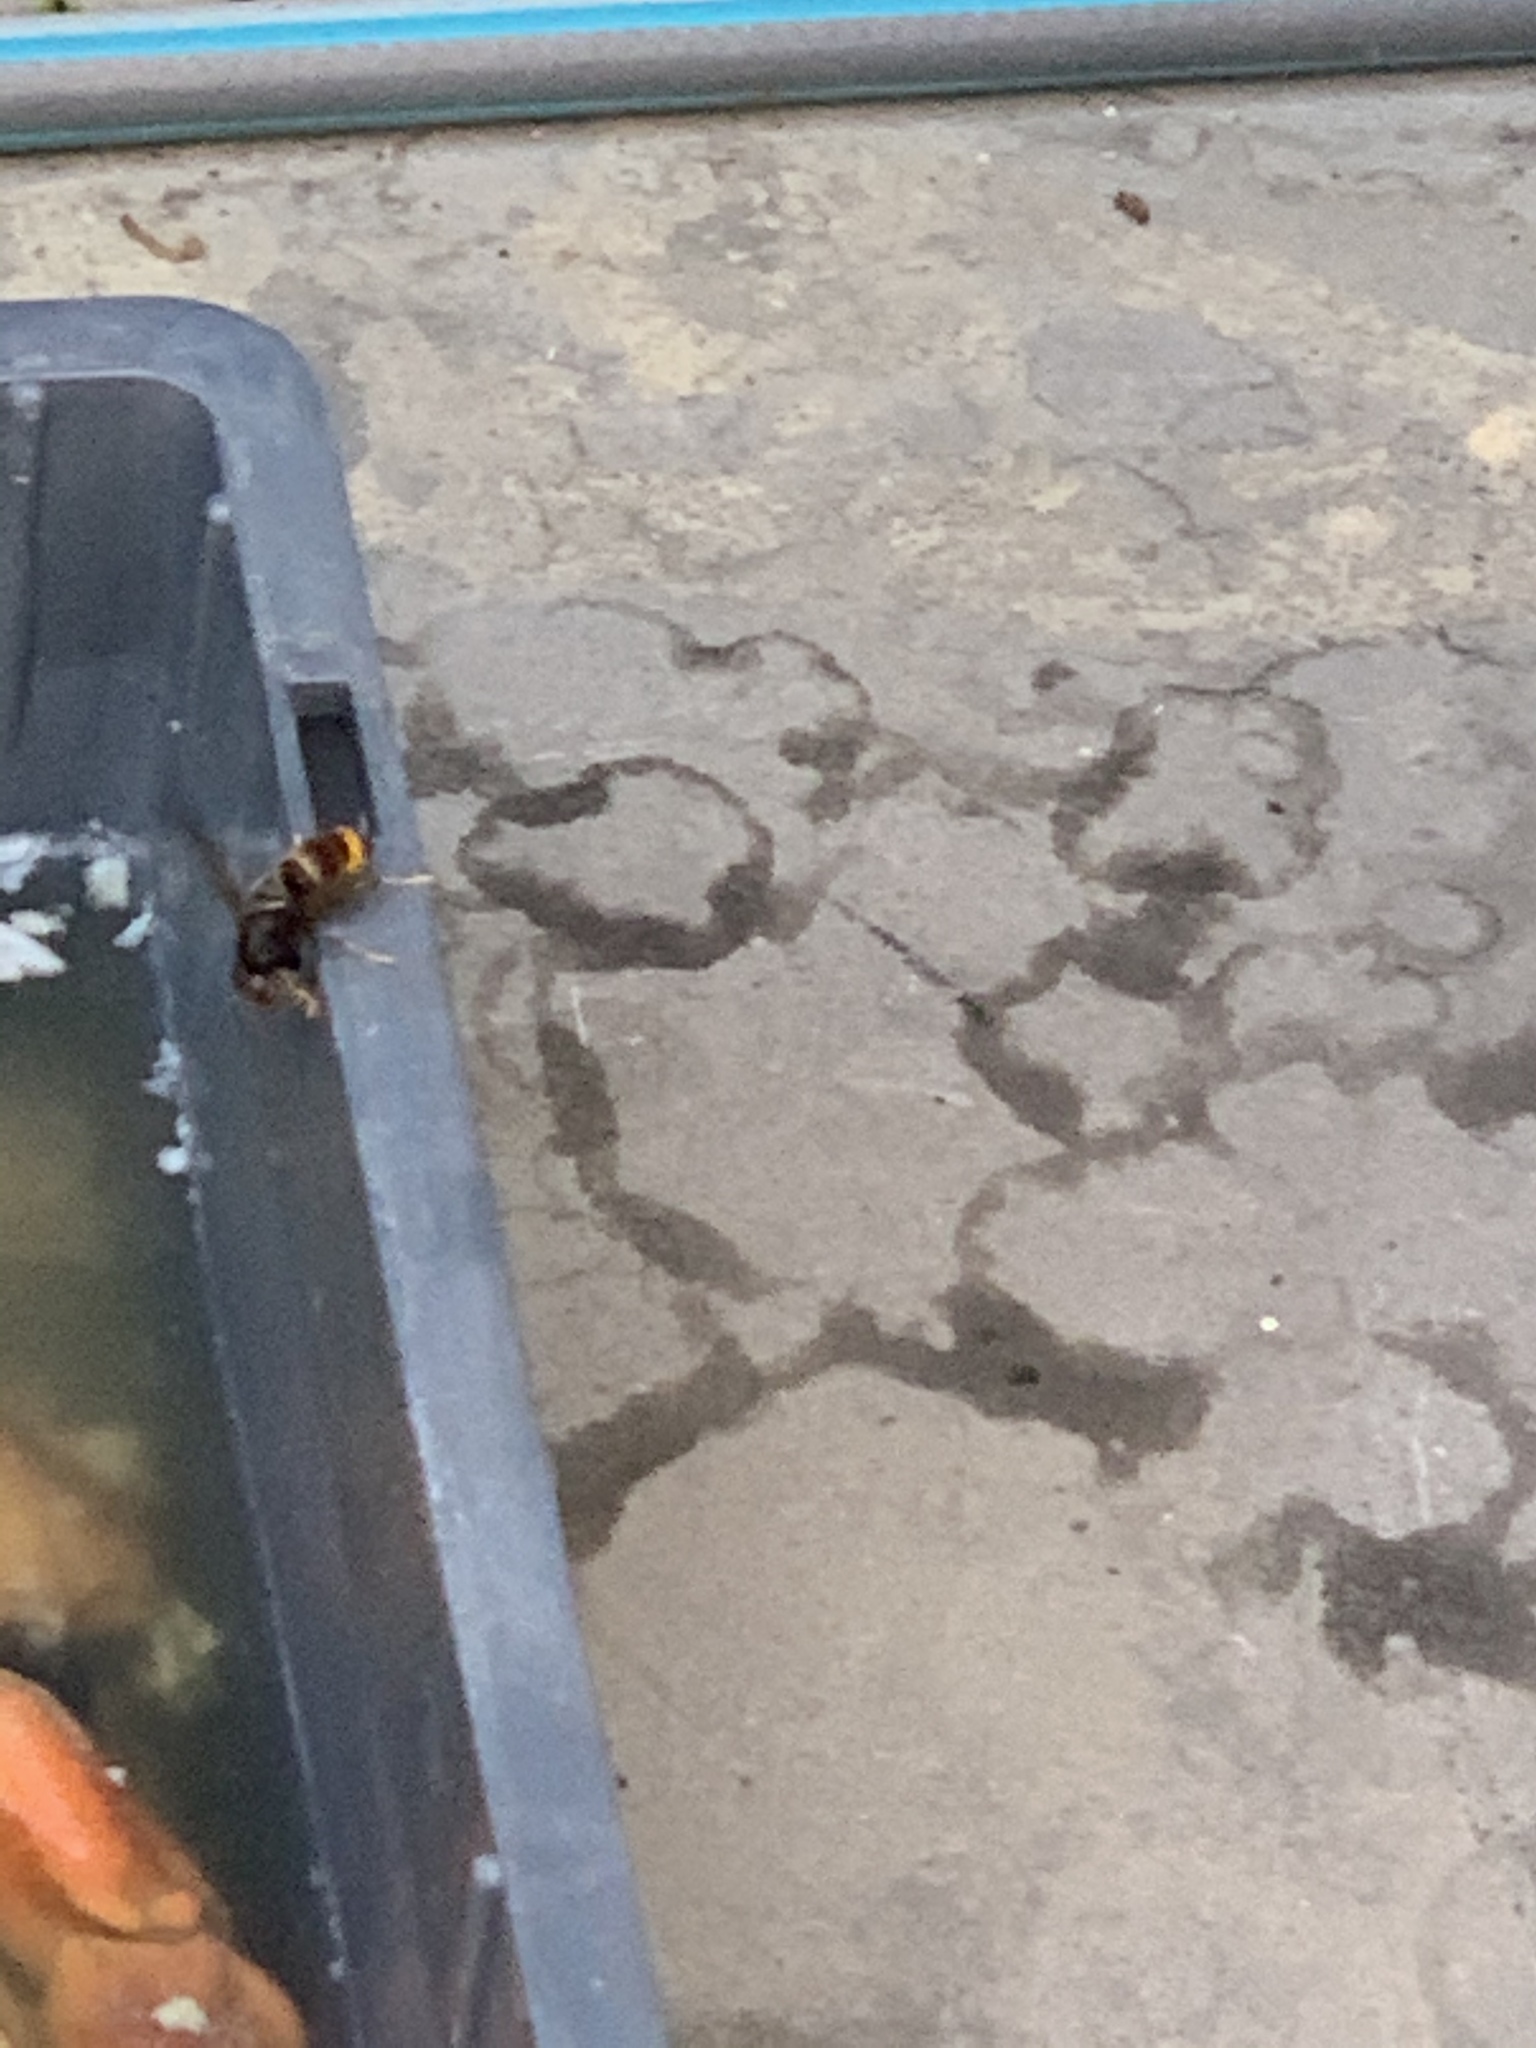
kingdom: Animalia
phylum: Arthropoda
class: Insecta
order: Hymenoptera
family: Vespidae
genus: Vespa
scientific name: Vespa velutina
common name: Asian hornet
